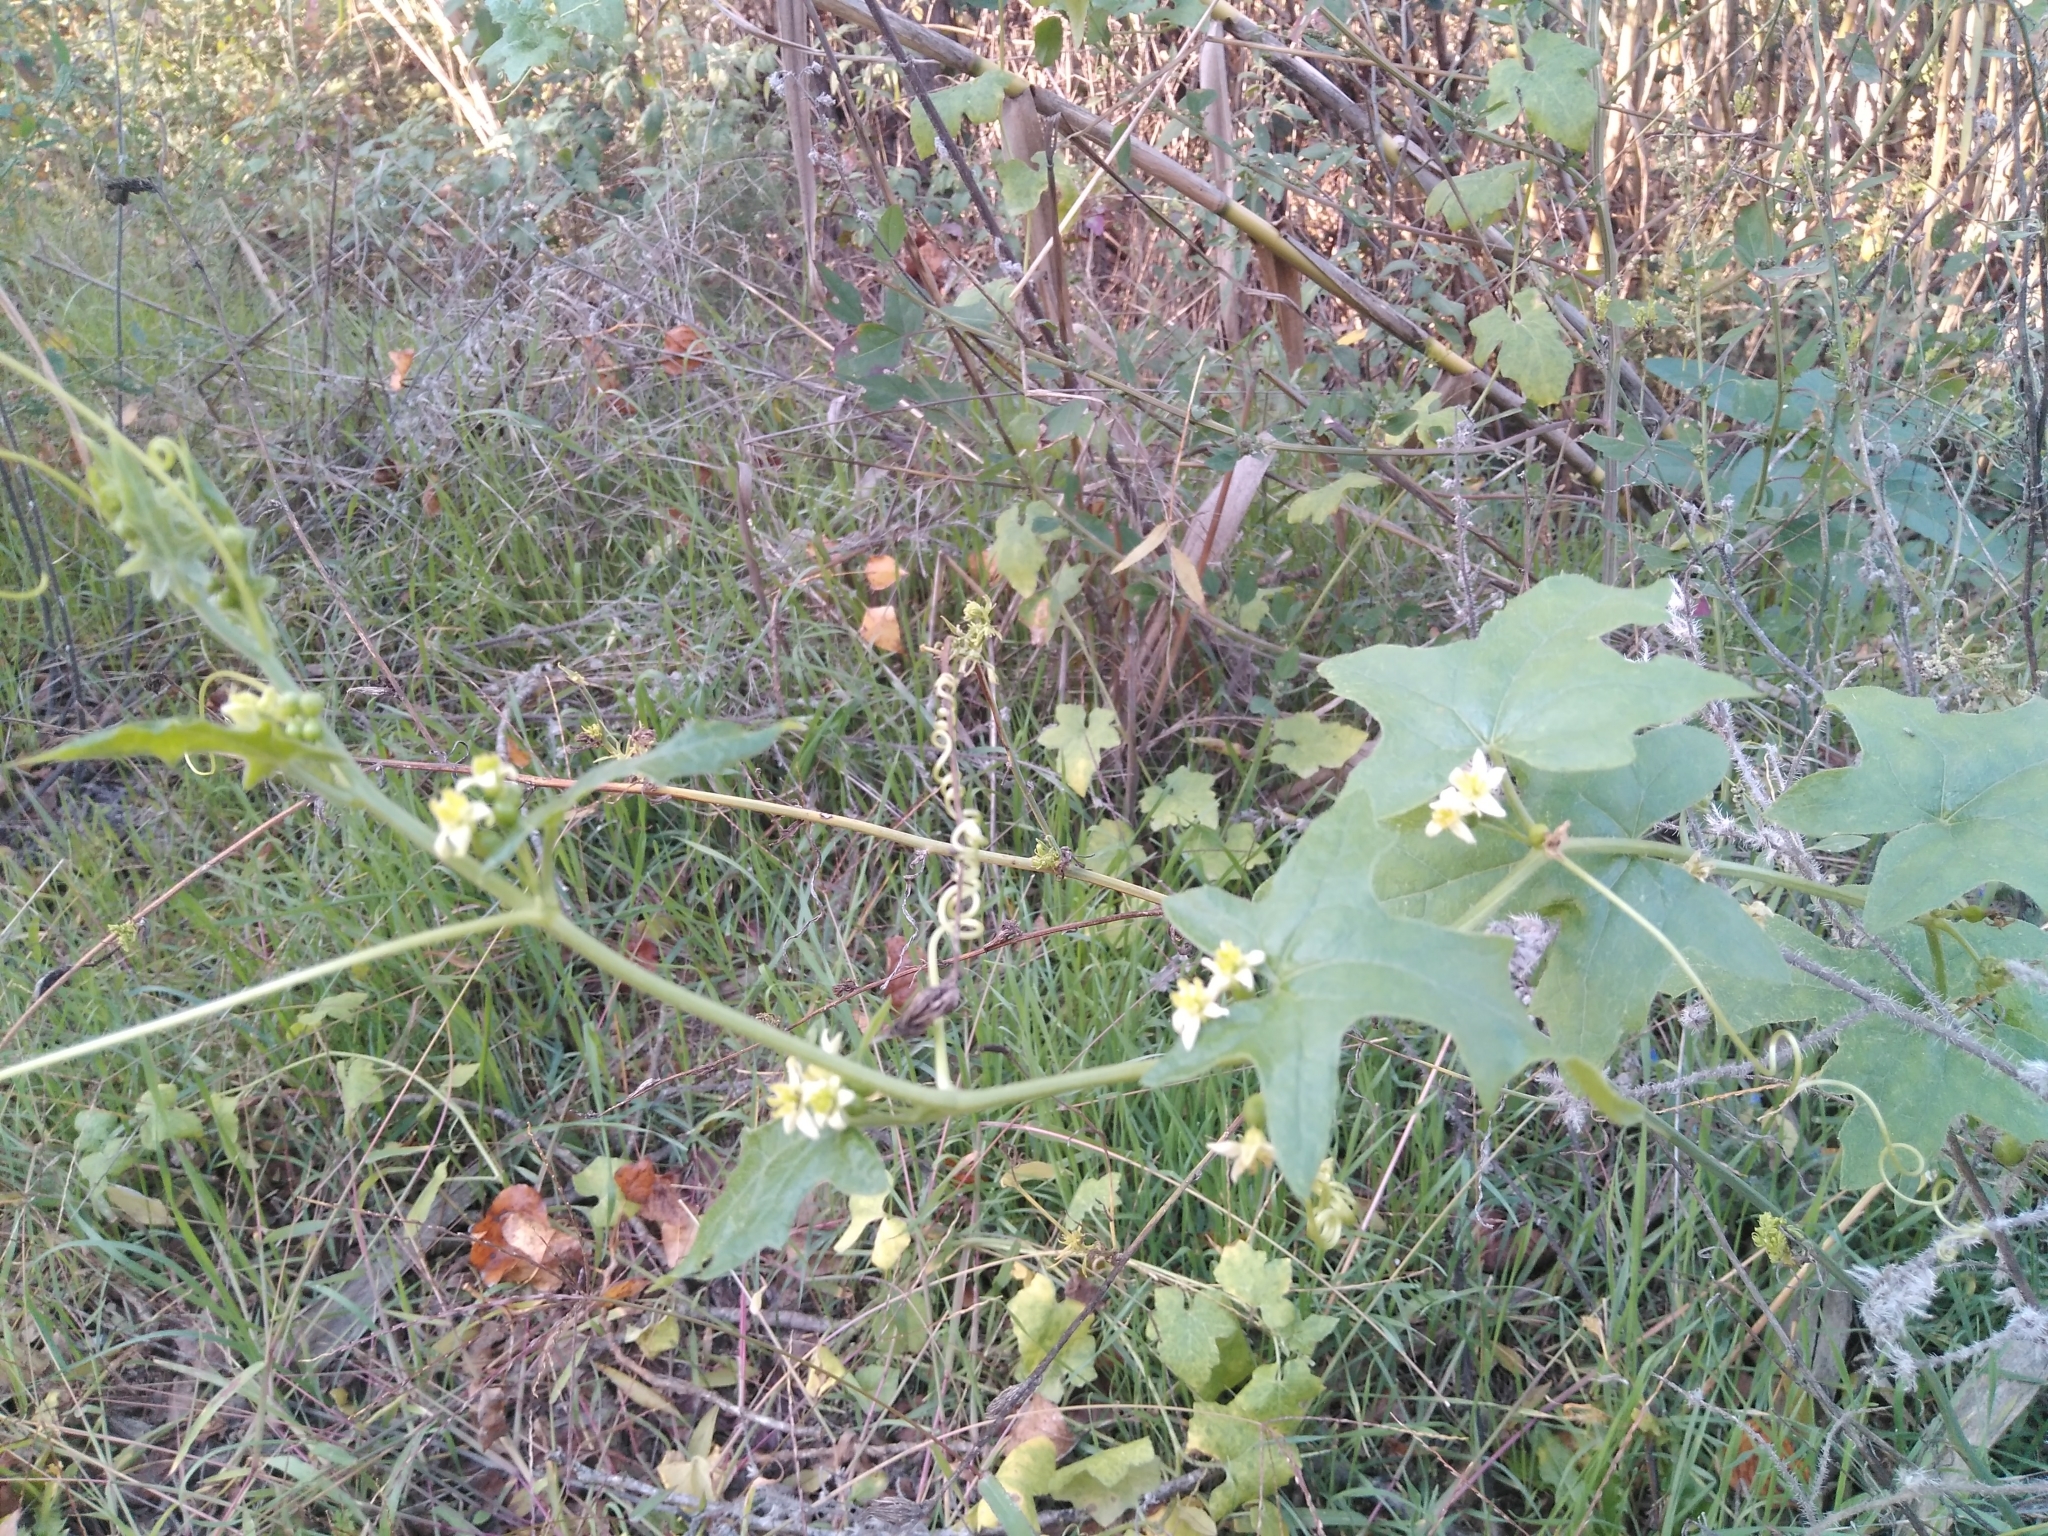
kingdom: Plantae
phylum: Tracheophyta
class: Magnoliopsida
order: Cucurbitales
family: Cucurbitaceae
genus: Bryonia
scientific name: Bryonia dioica
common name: White bryony
